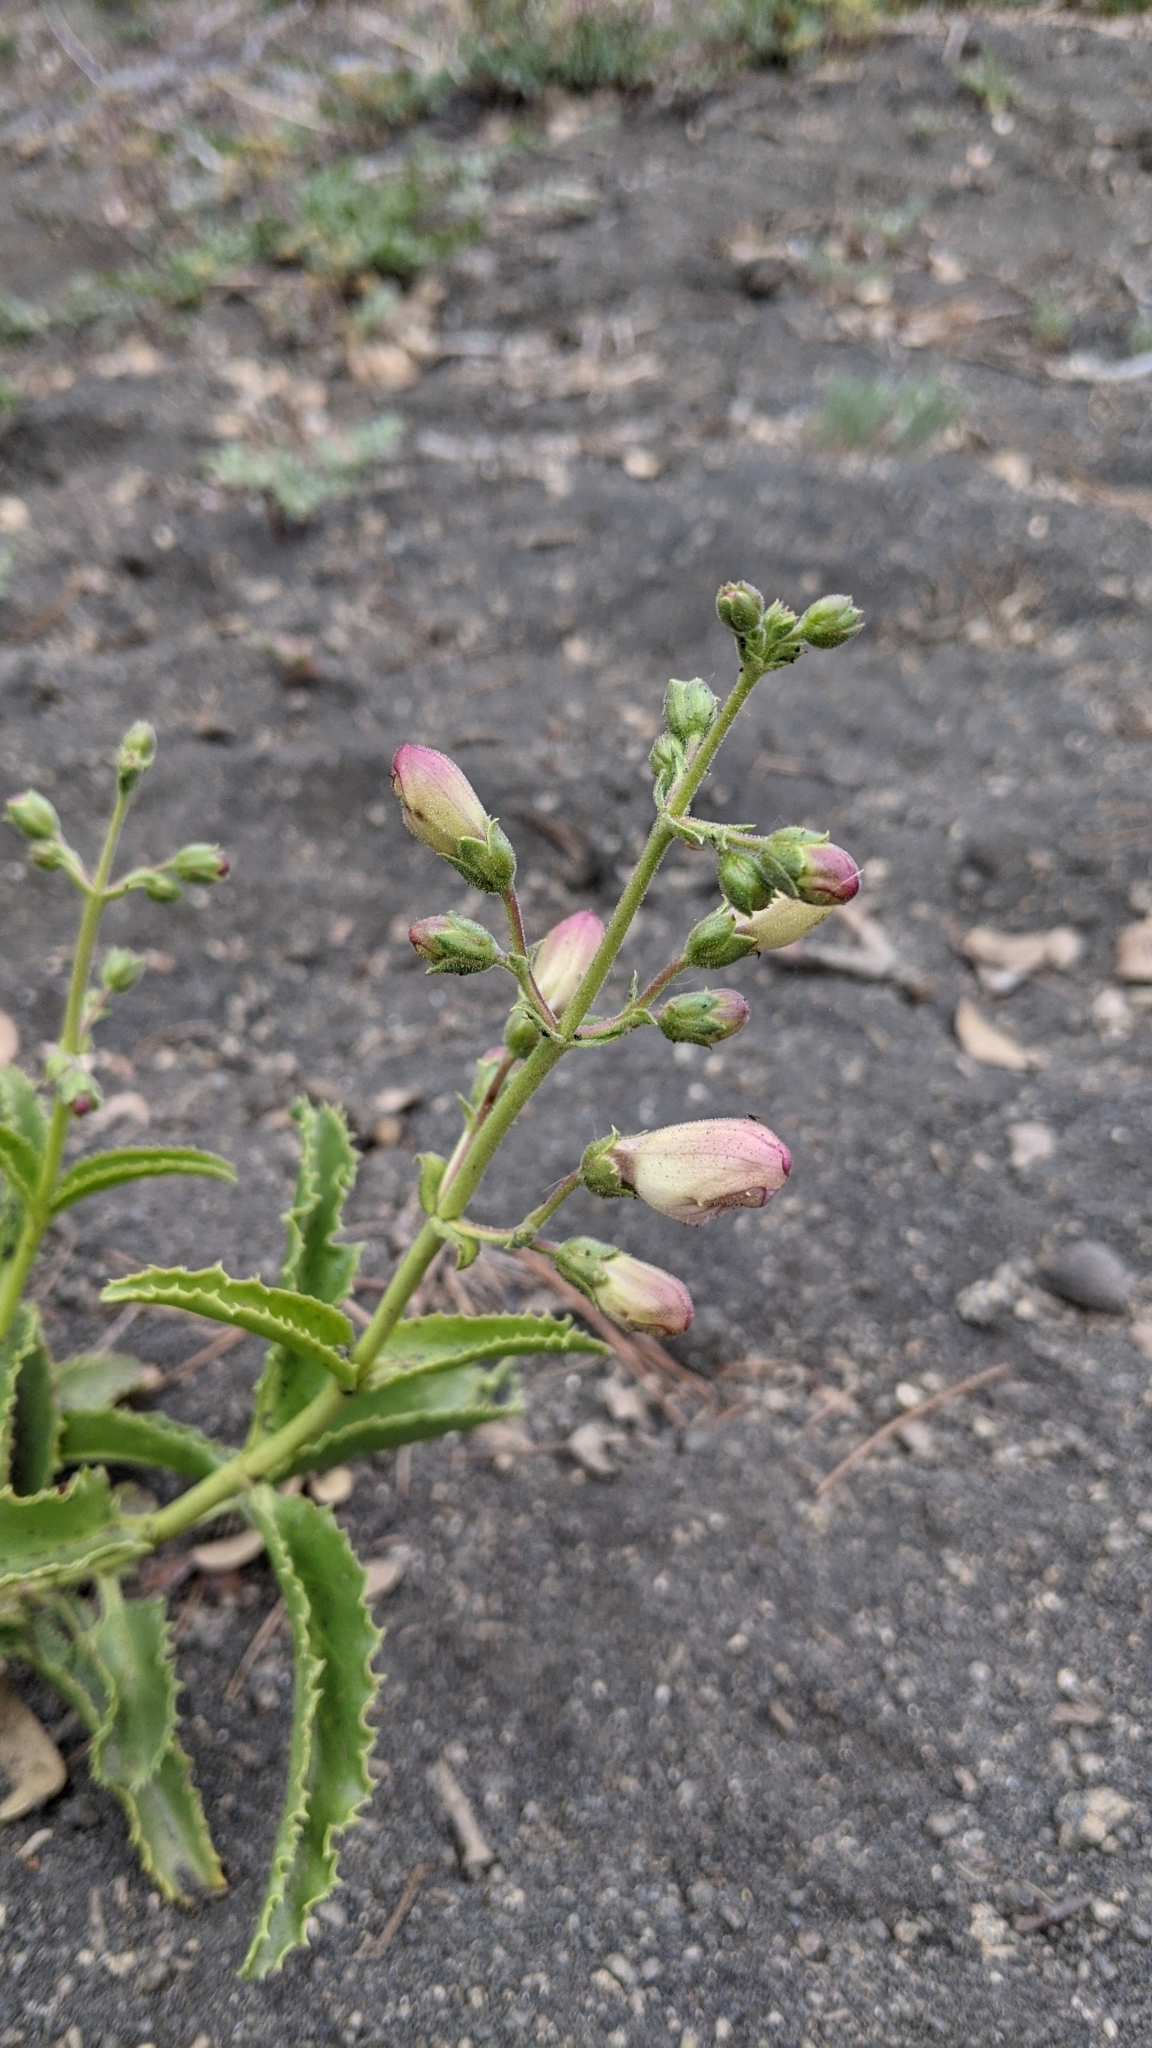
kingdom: Plantae
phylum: Tracheophyta
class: Magnoliopsida
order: Lamiales
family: Plantaginaceae
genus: Penstemon
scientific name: Penstemon grinnellii
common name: Grinnell's beardtongue
